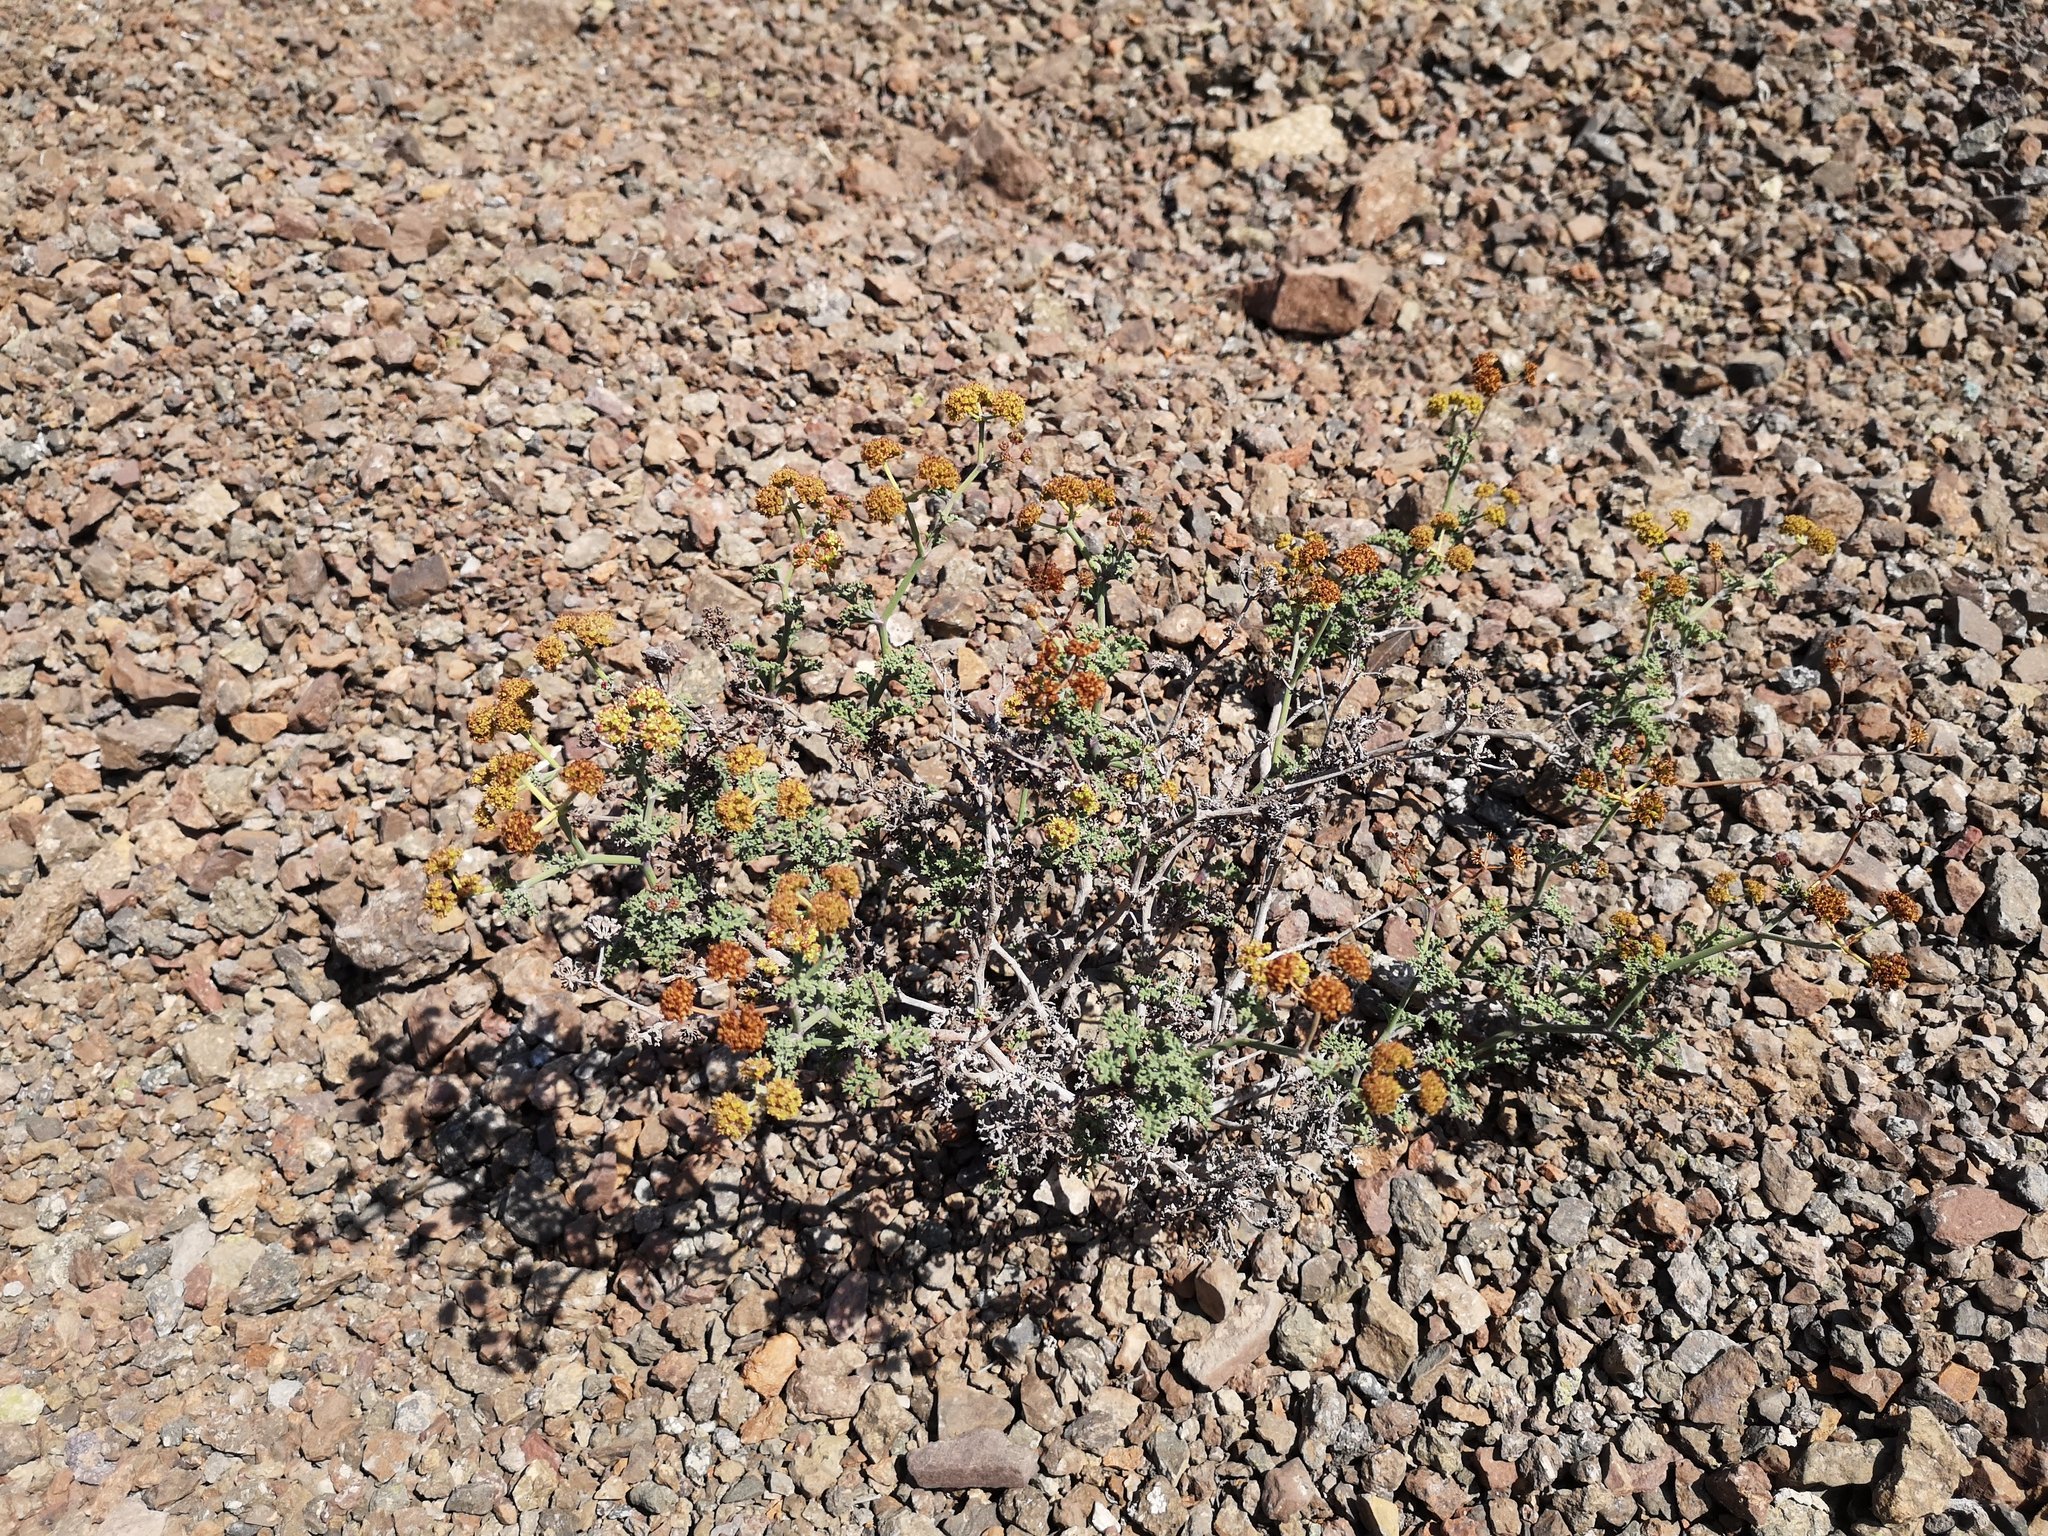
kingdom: Plantae
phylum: Tracheophyta
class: Magnoliopsida
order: Apiales
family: Apiaceae
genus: Eremocharis
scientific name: Eremocharis fruticosa
